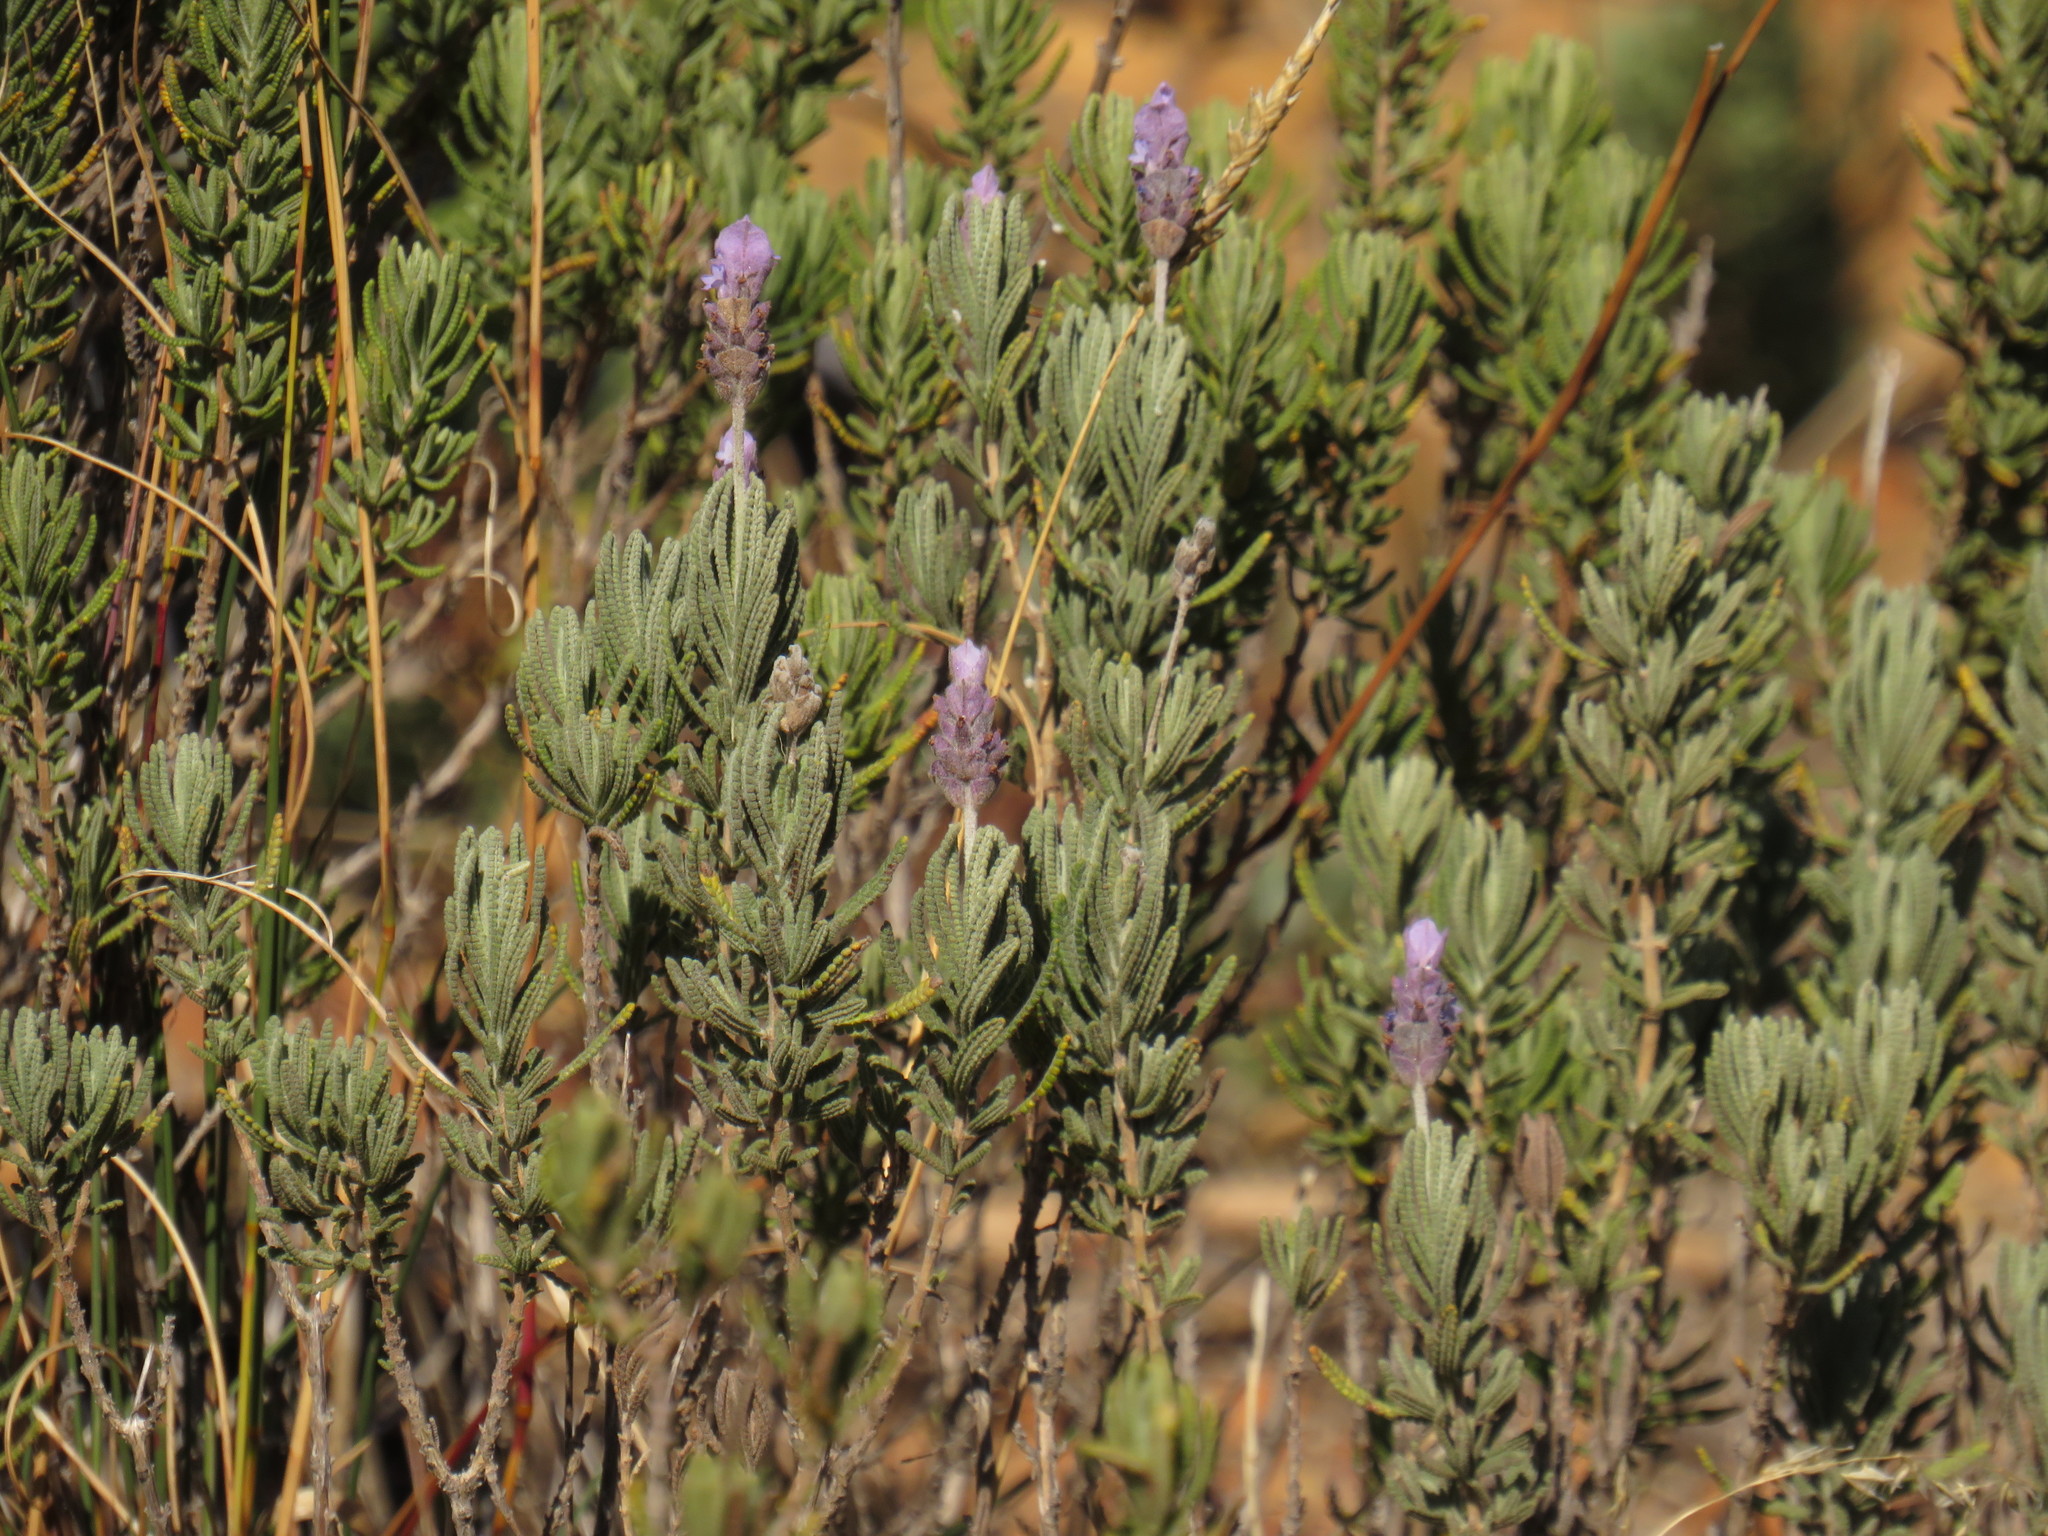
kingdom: Plantae
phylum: Tracheophyta
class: Magnoliopsida
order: Lamiales
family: Lamiaceae
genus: Lavandula
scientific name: Lavandula dentata
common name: French lavender
